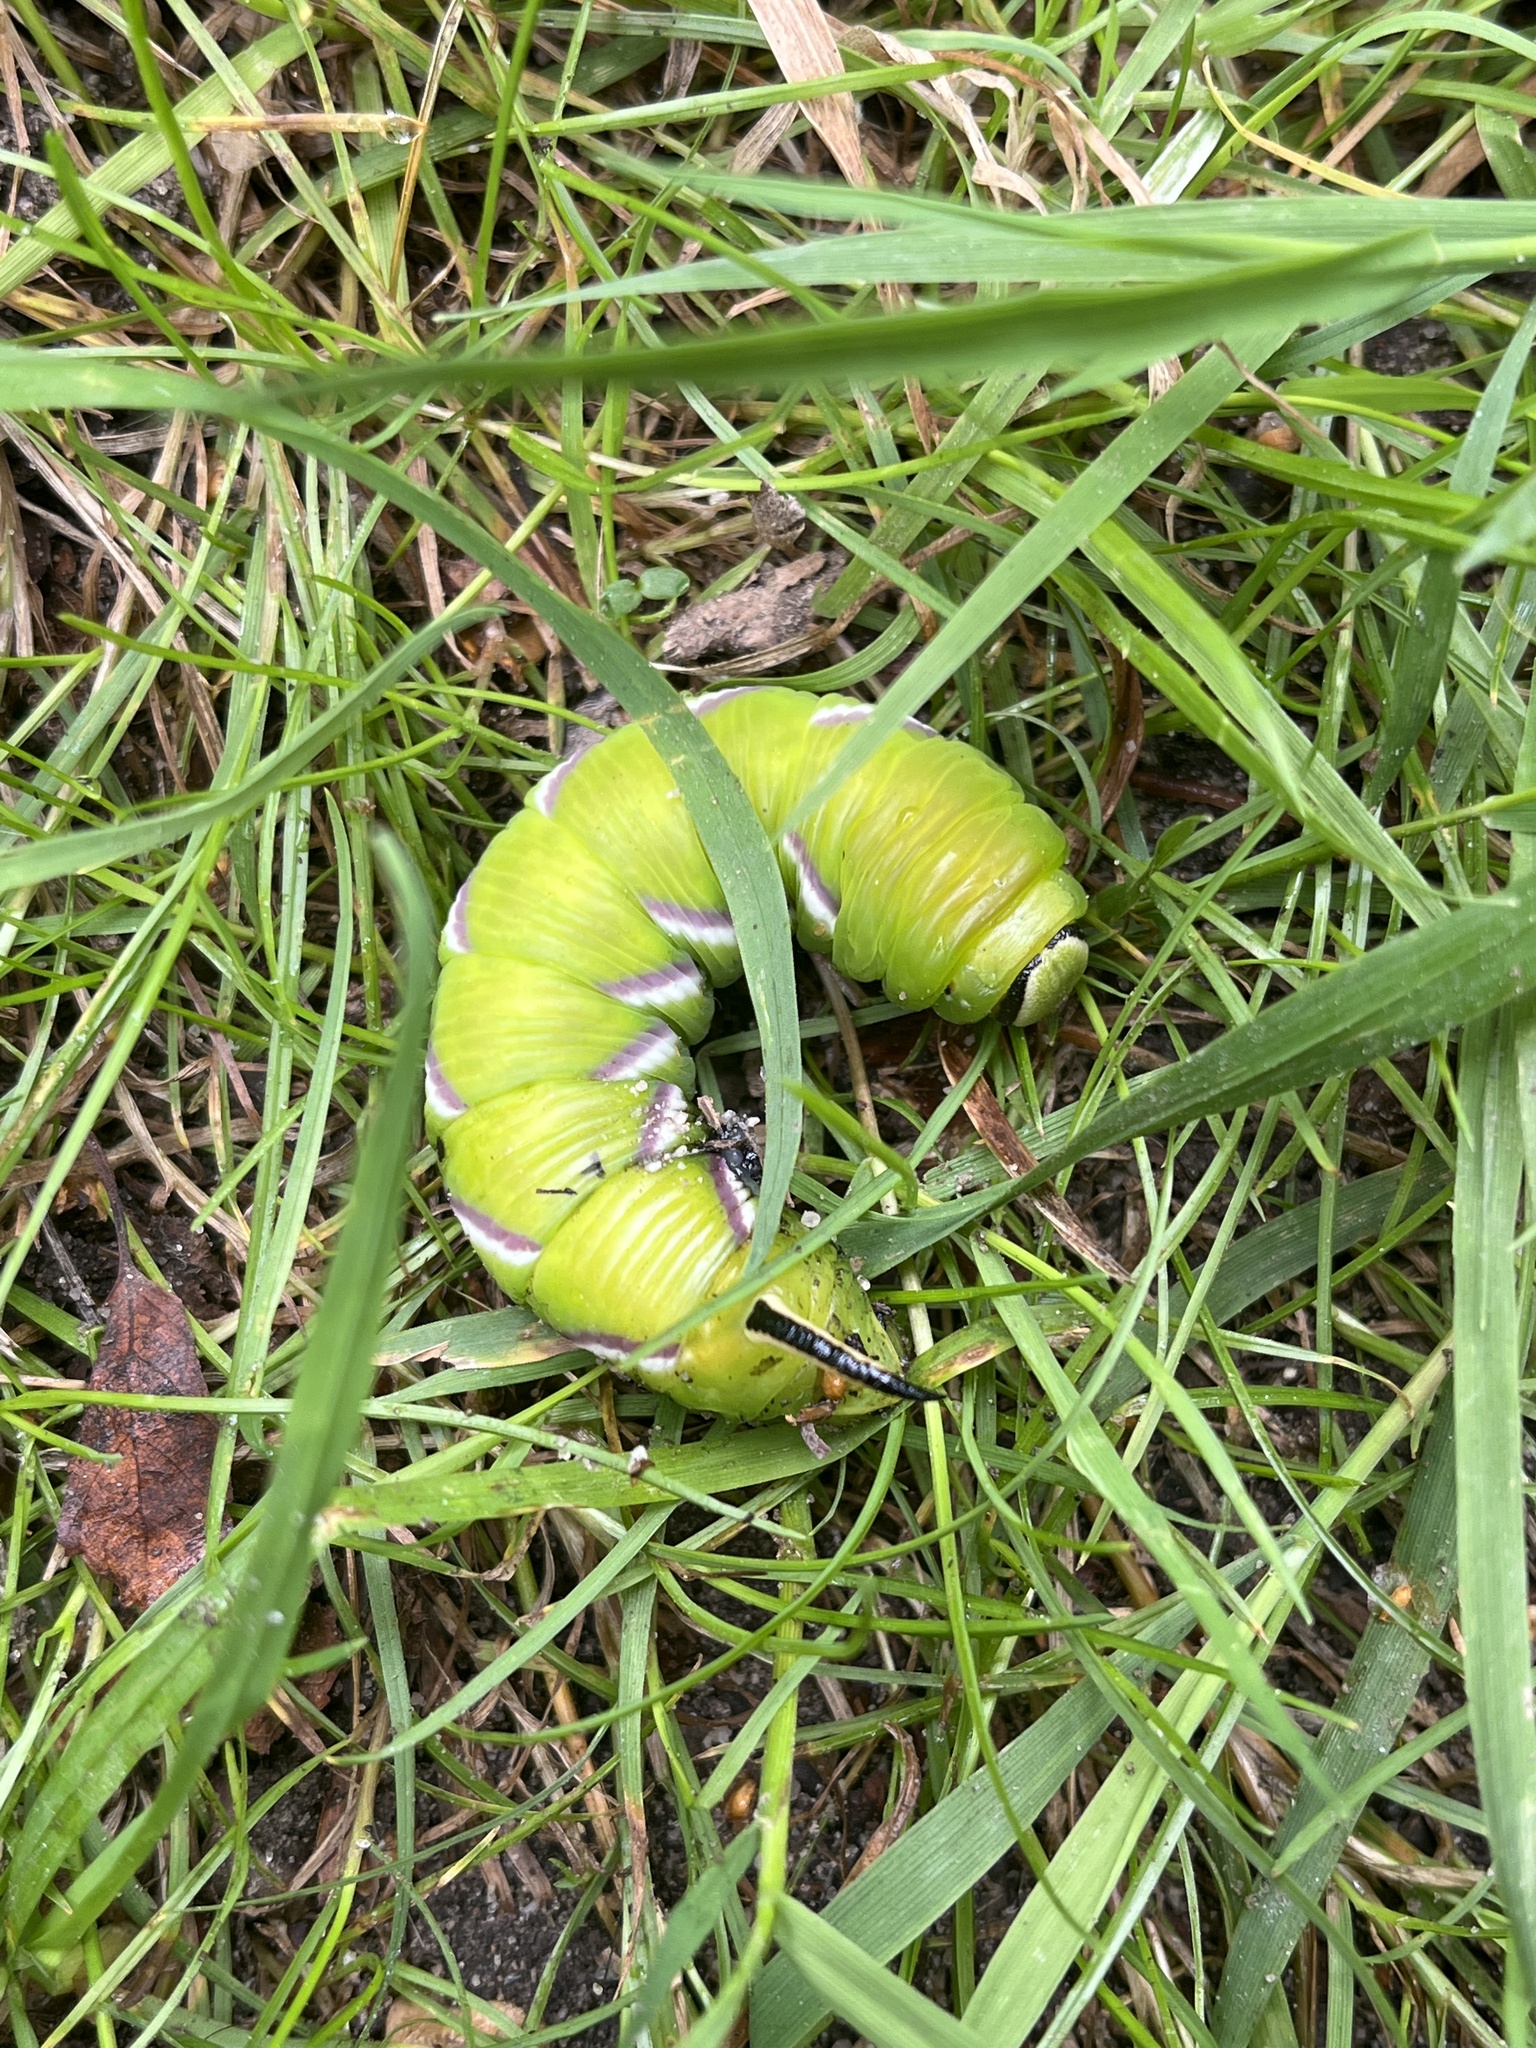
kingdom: Animalia
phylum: Arthropoda
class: Insecta
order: Lepidoptera
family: Sphingidae
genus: Sphinx
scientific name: Sphinx ligustri
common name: Privet hawk-moth
